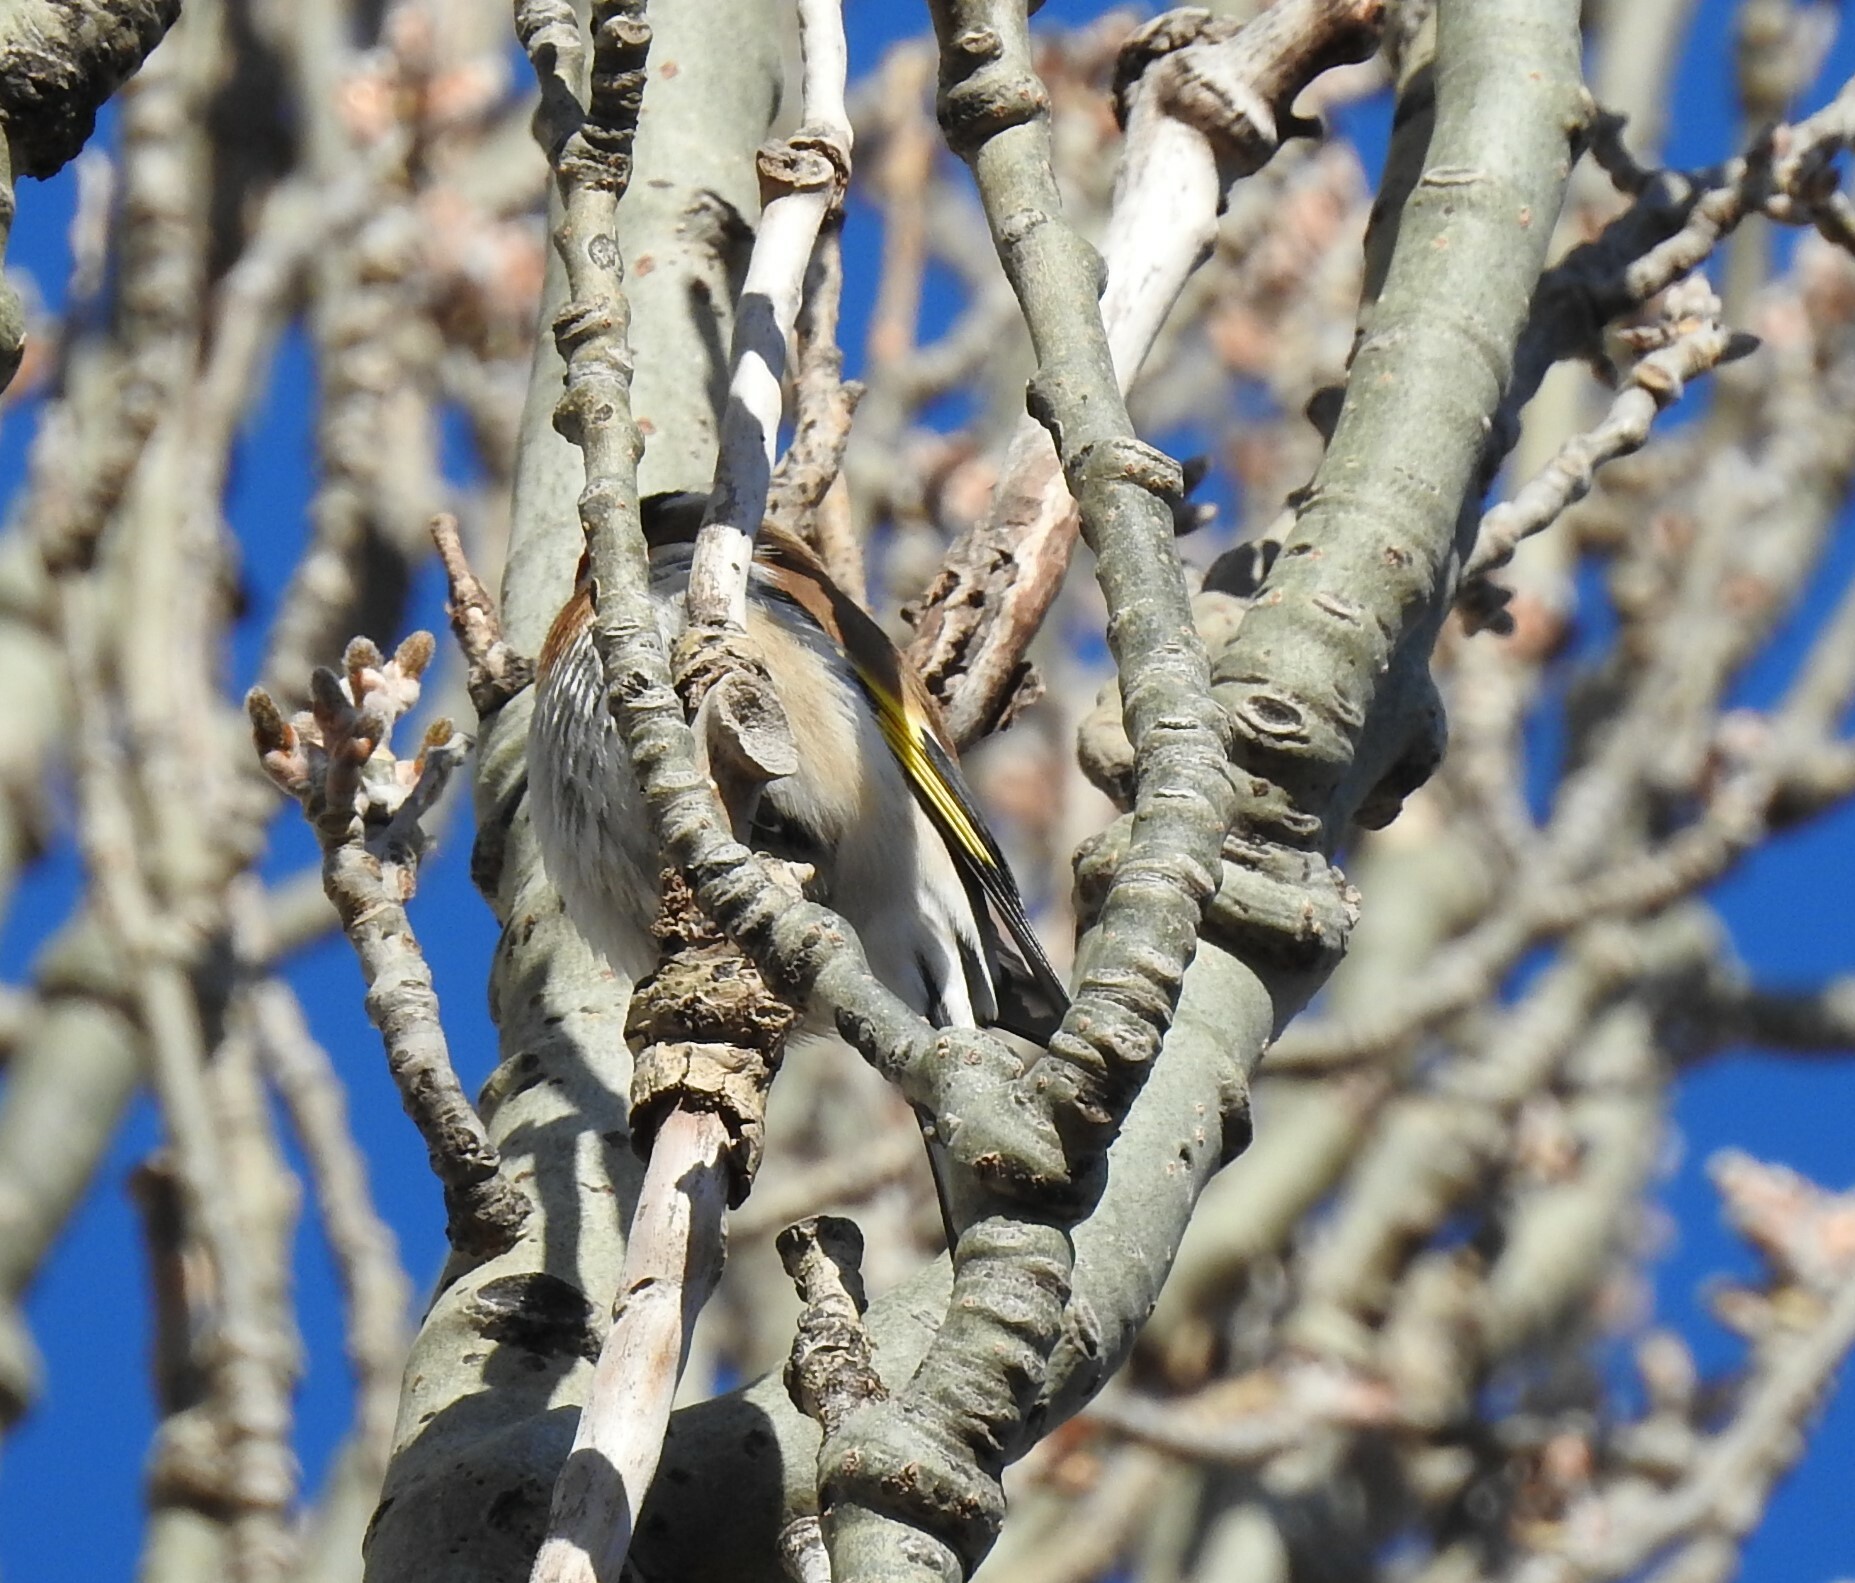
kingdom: Animalia
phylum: Chordata
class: Aves
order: Passeriformes
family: Fringillidae
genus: Carduelis
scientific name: Carduelis carduelis
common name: European goldfinch
